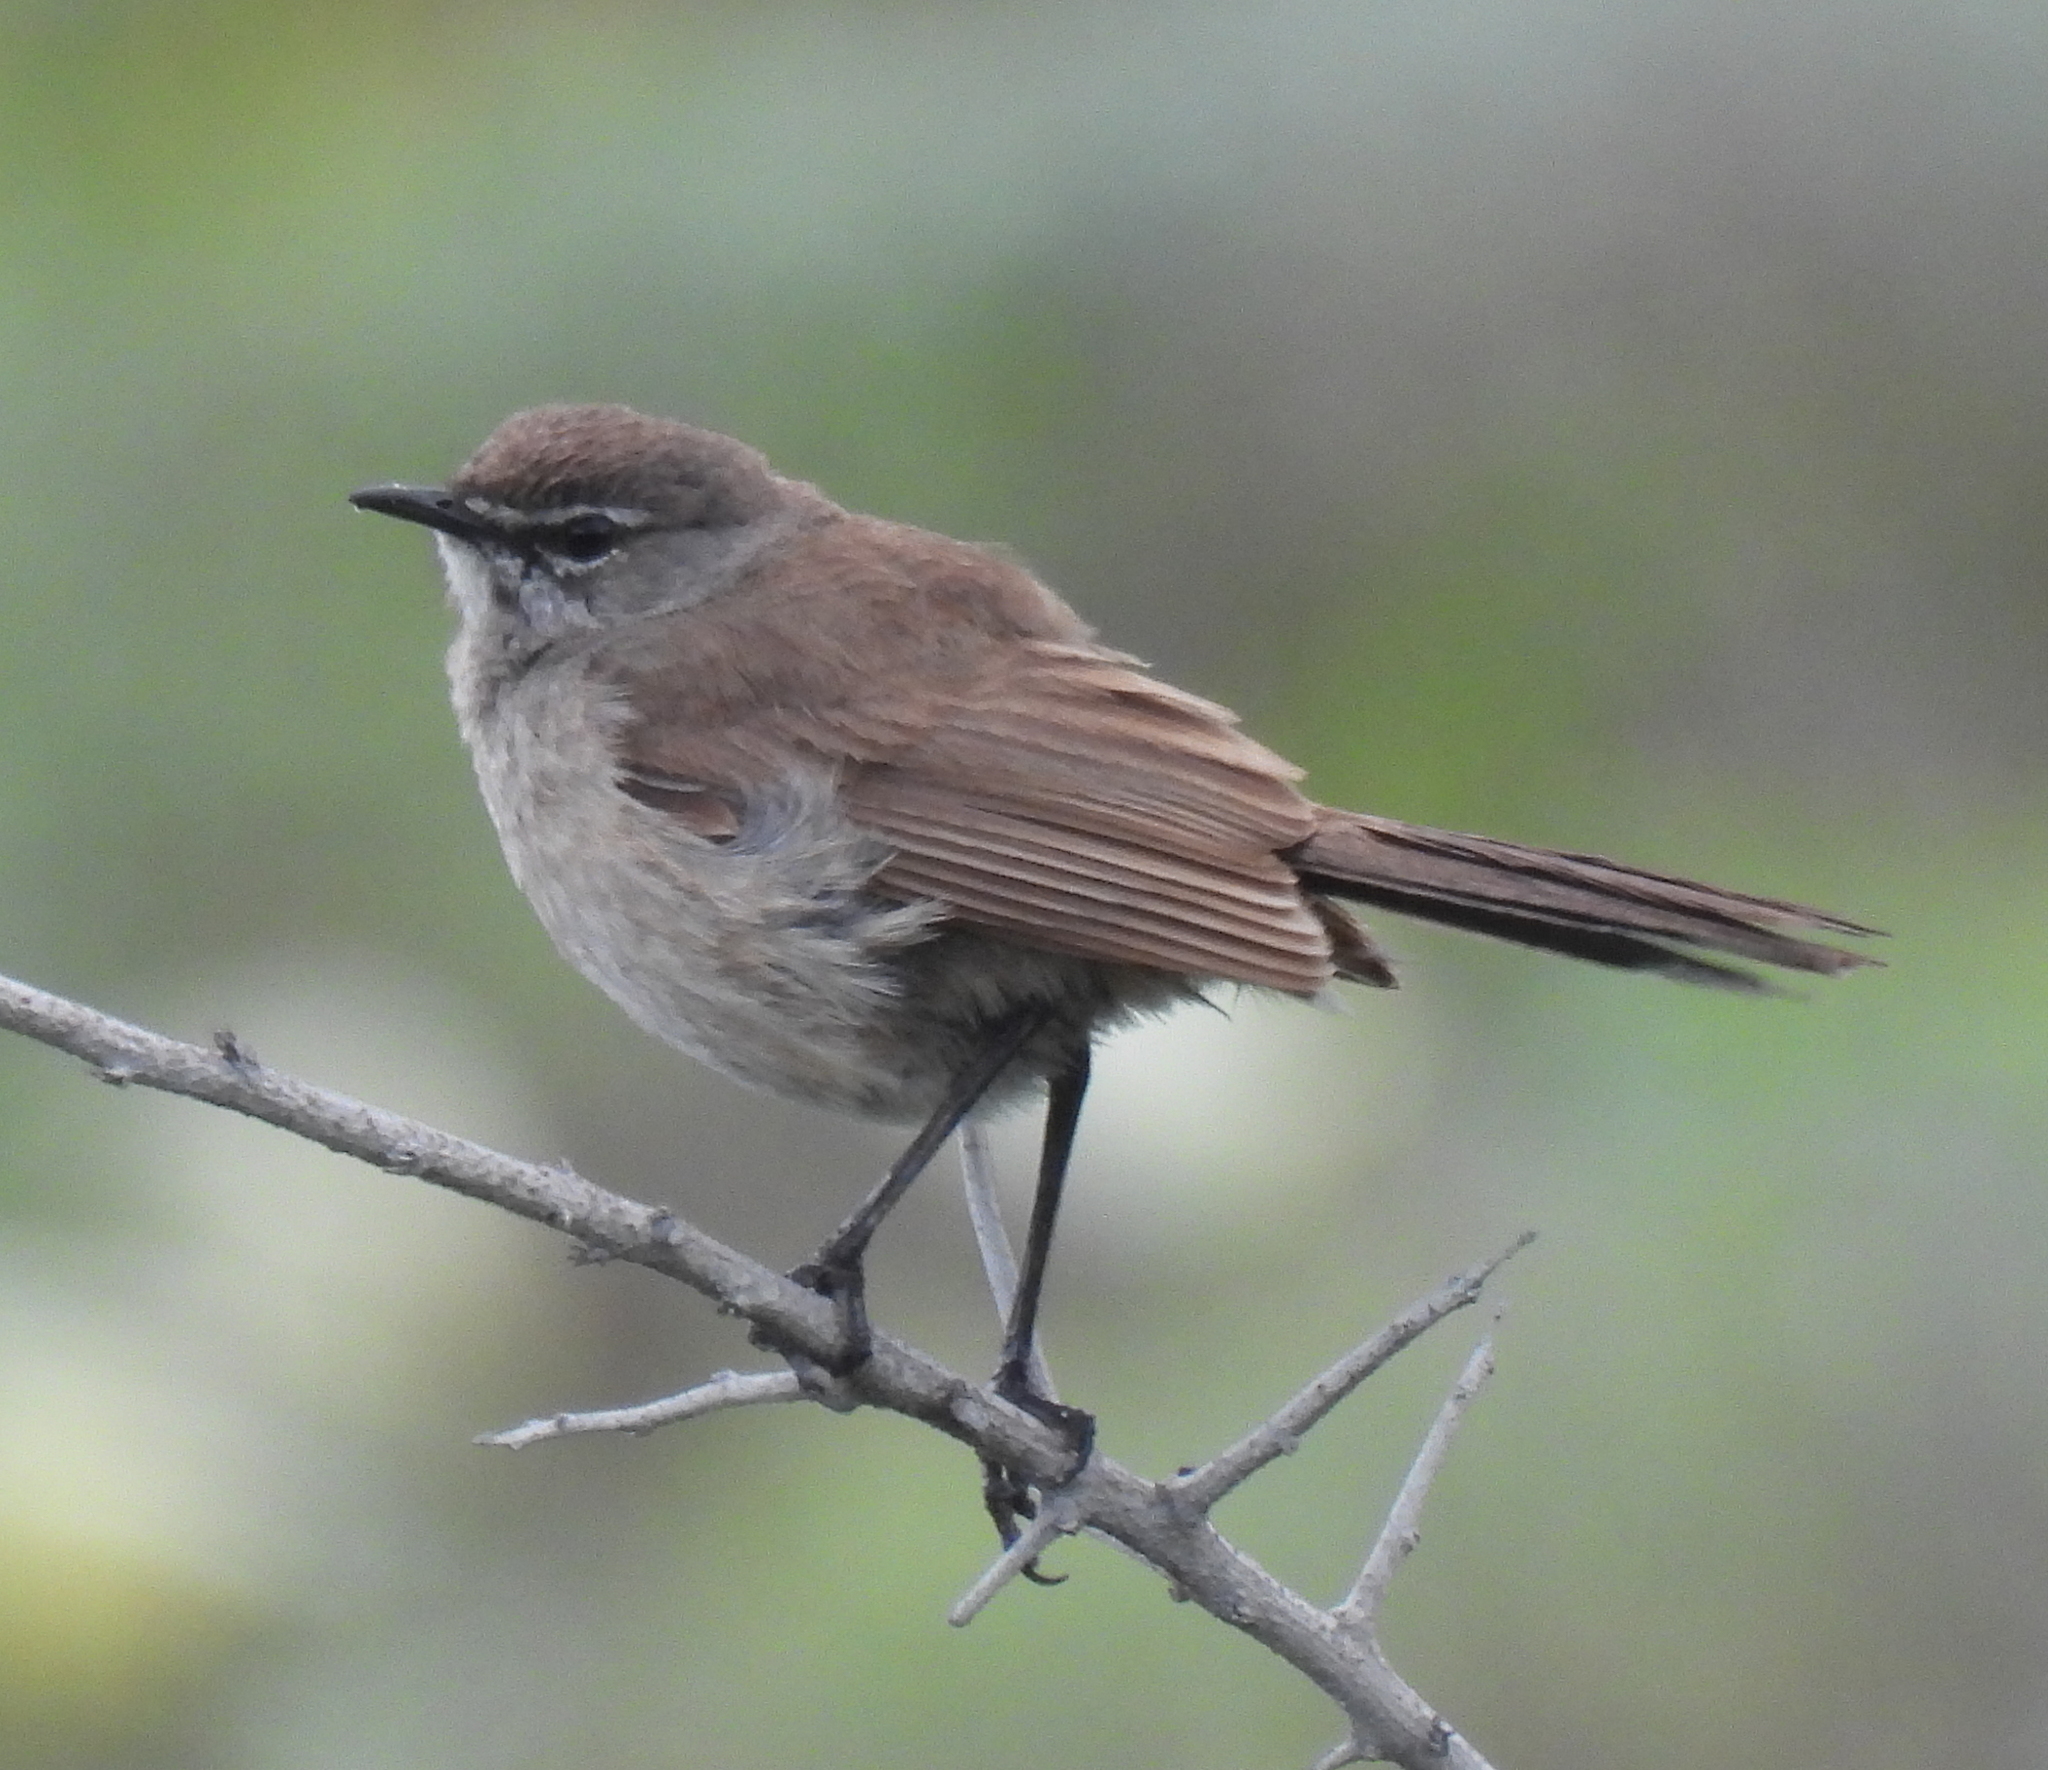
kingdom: Animalia
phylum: Chordata
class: Aves
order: Passeriformes
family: Muscicapidae
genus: Erythropygia
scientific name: Erythropygia coryphoeus
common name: Karoo scrub robin
